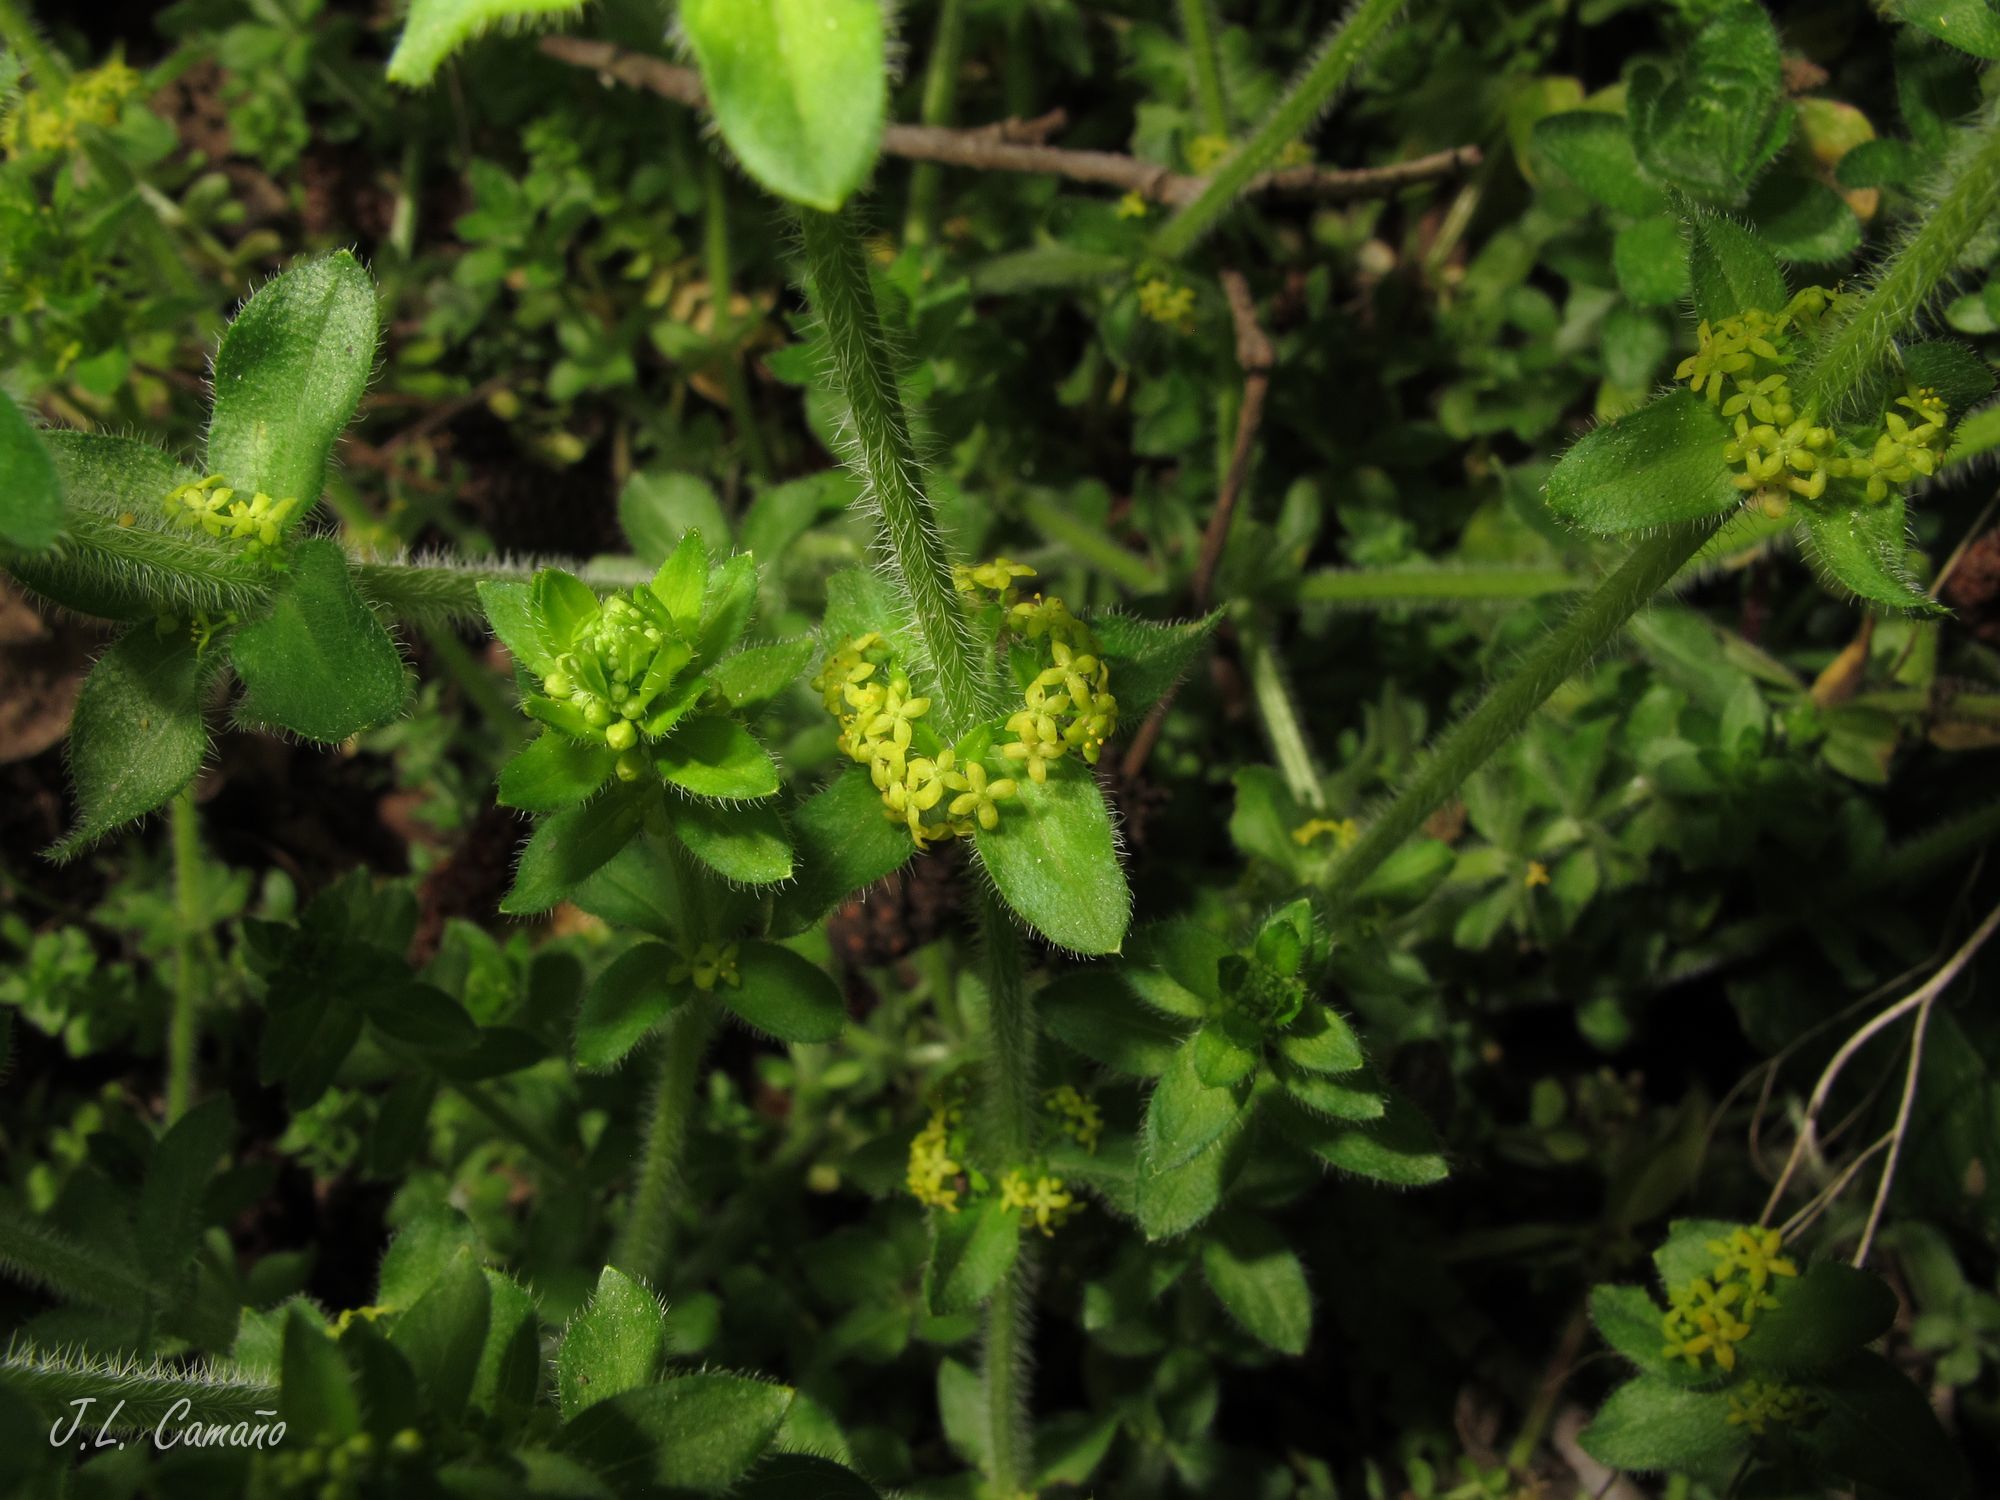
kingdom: Plantae
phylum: Tracheophyta
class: Magnoliopsida
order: Gentianales
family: Rubiaceae
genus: Cruciata
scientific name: Cruciata laevipes
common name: Crosswort
